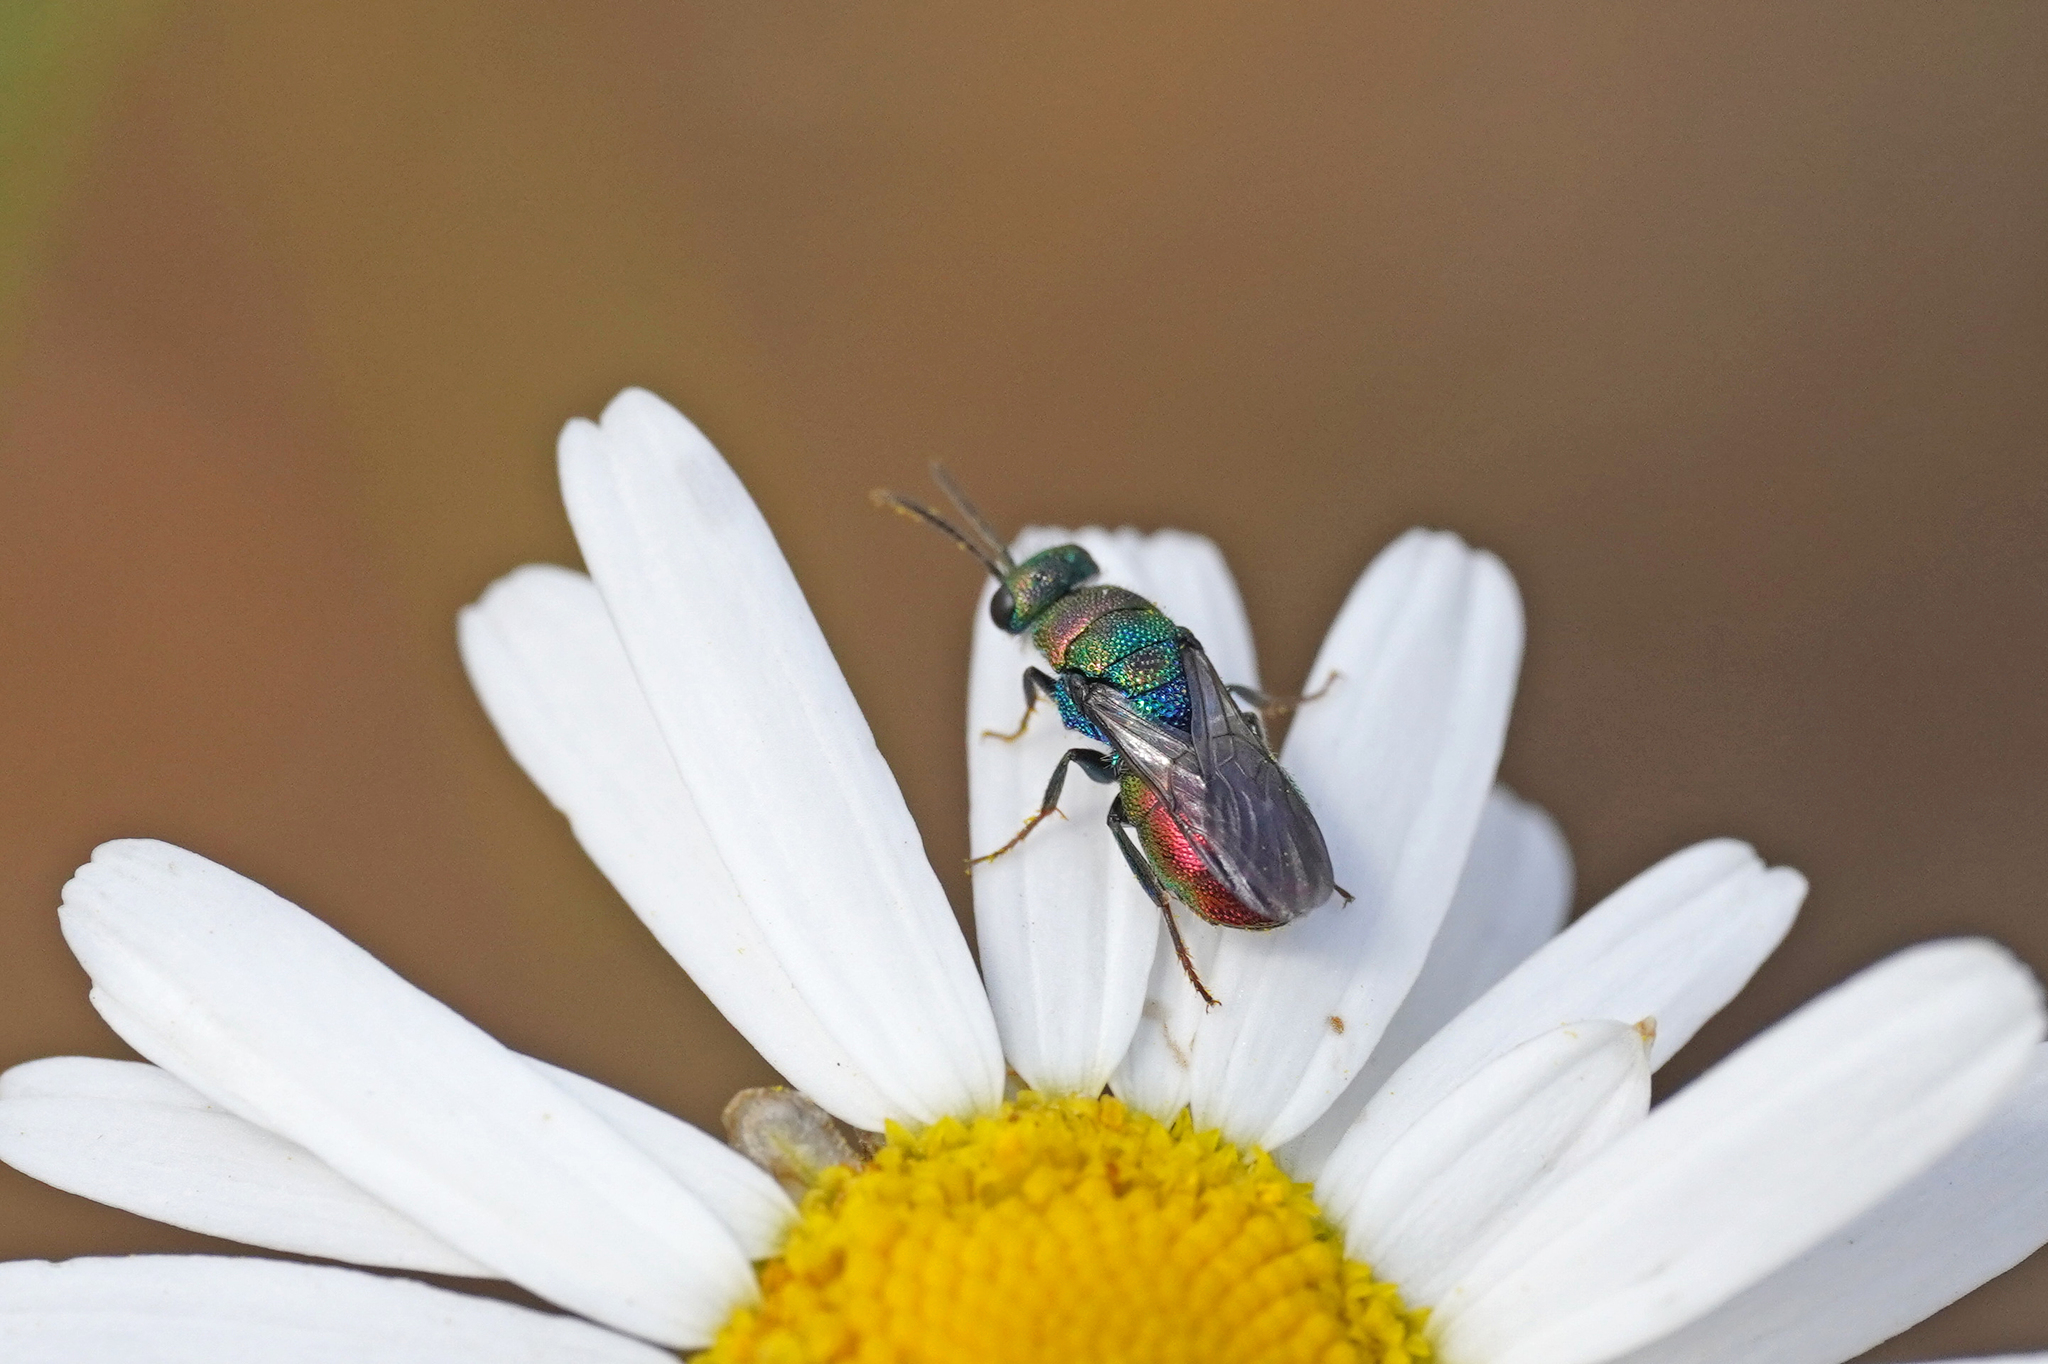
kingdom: Animalia
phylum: Arthropoda
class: Insecta
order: Hymenoptera
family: Chrysididae
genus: Hedychrum
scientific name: Hedychrum rutilans
